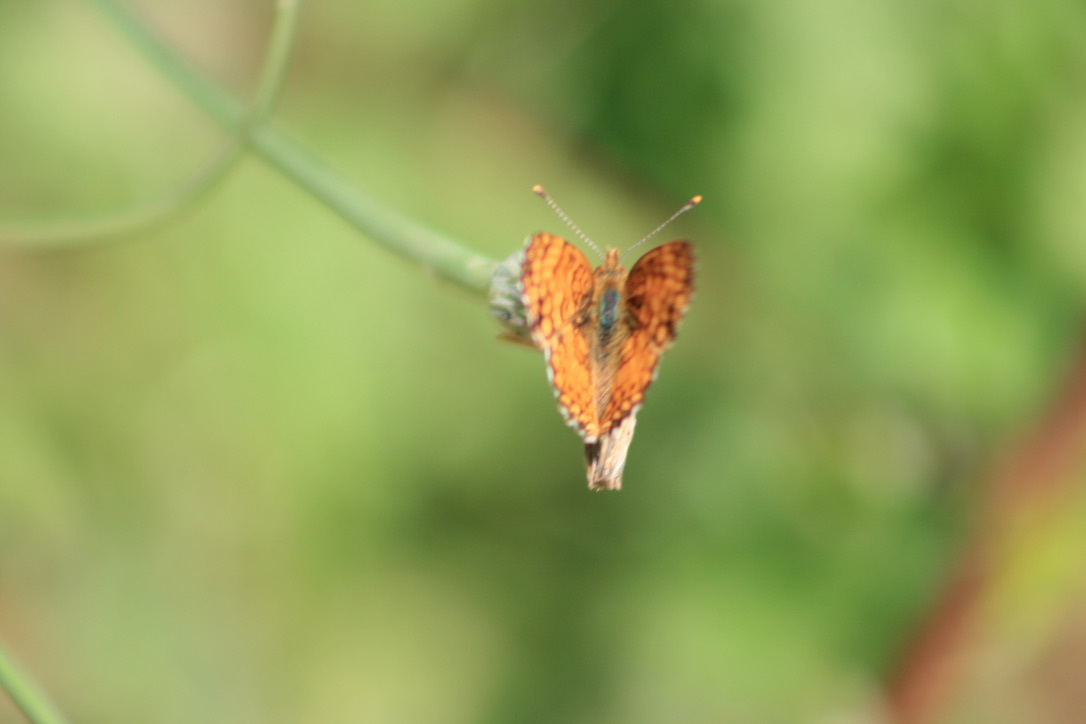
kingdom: Animalia
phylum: Arthropoda
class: Insecta
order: Lepidoptera
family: Nymphalidae
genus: Eresia
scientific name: Eresia aveyrona
